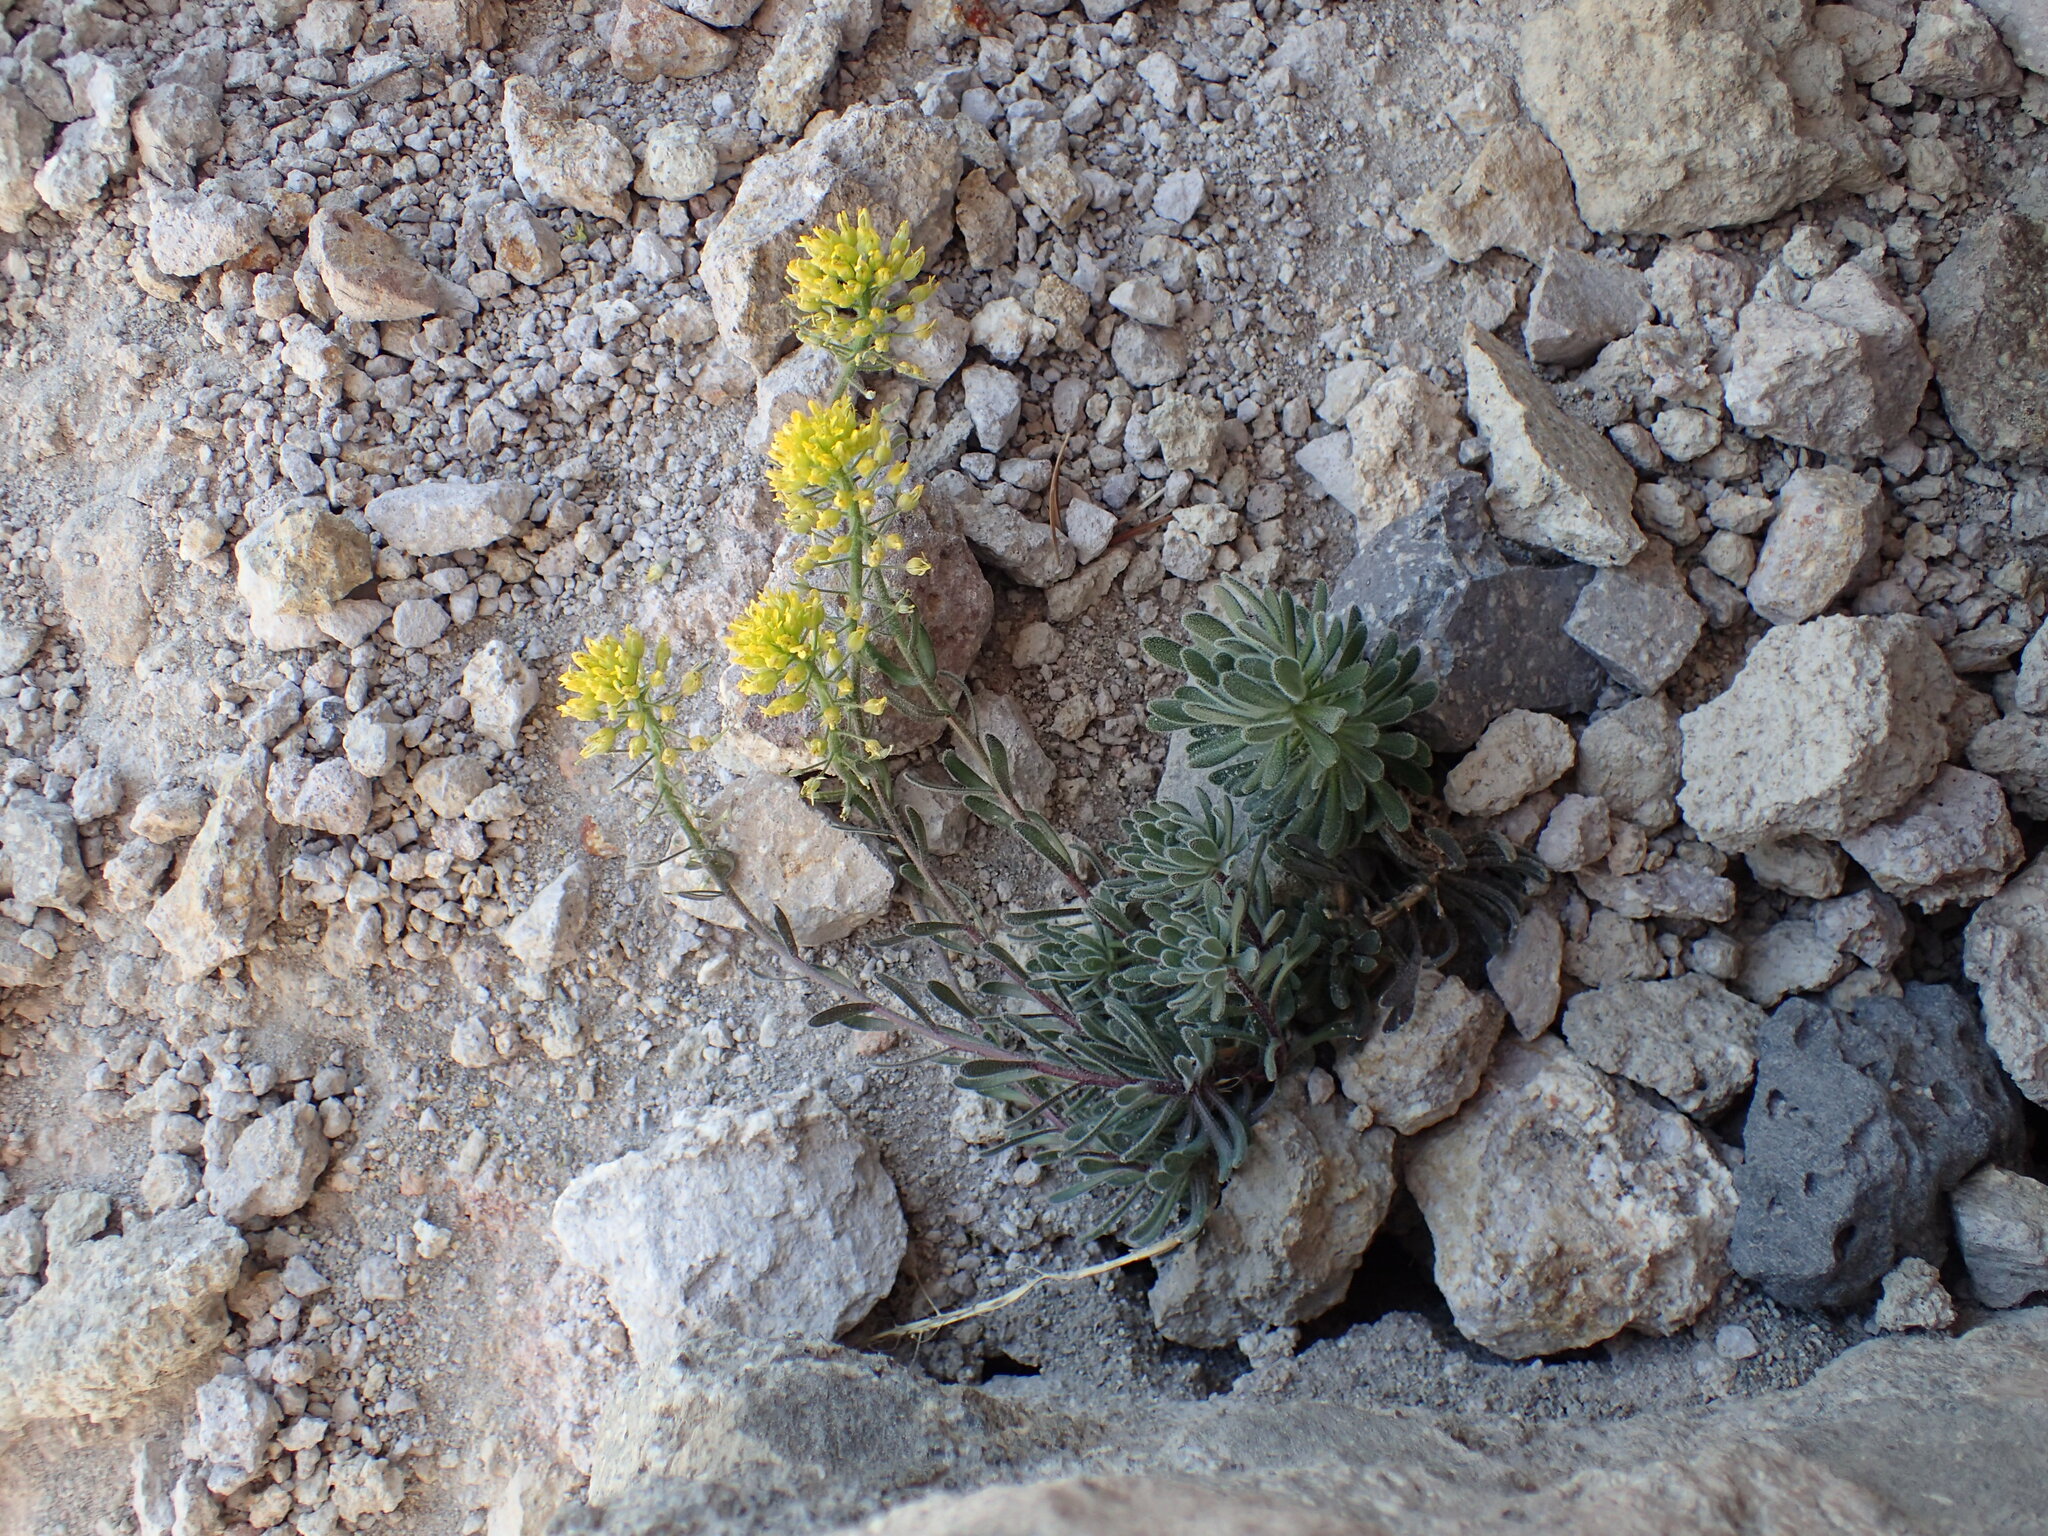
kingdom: Plantae
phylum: Tracheophyta
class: Magnoliopsida
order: Brassicales
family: Brassicaceae
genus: Draba
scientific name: Draba aureola
